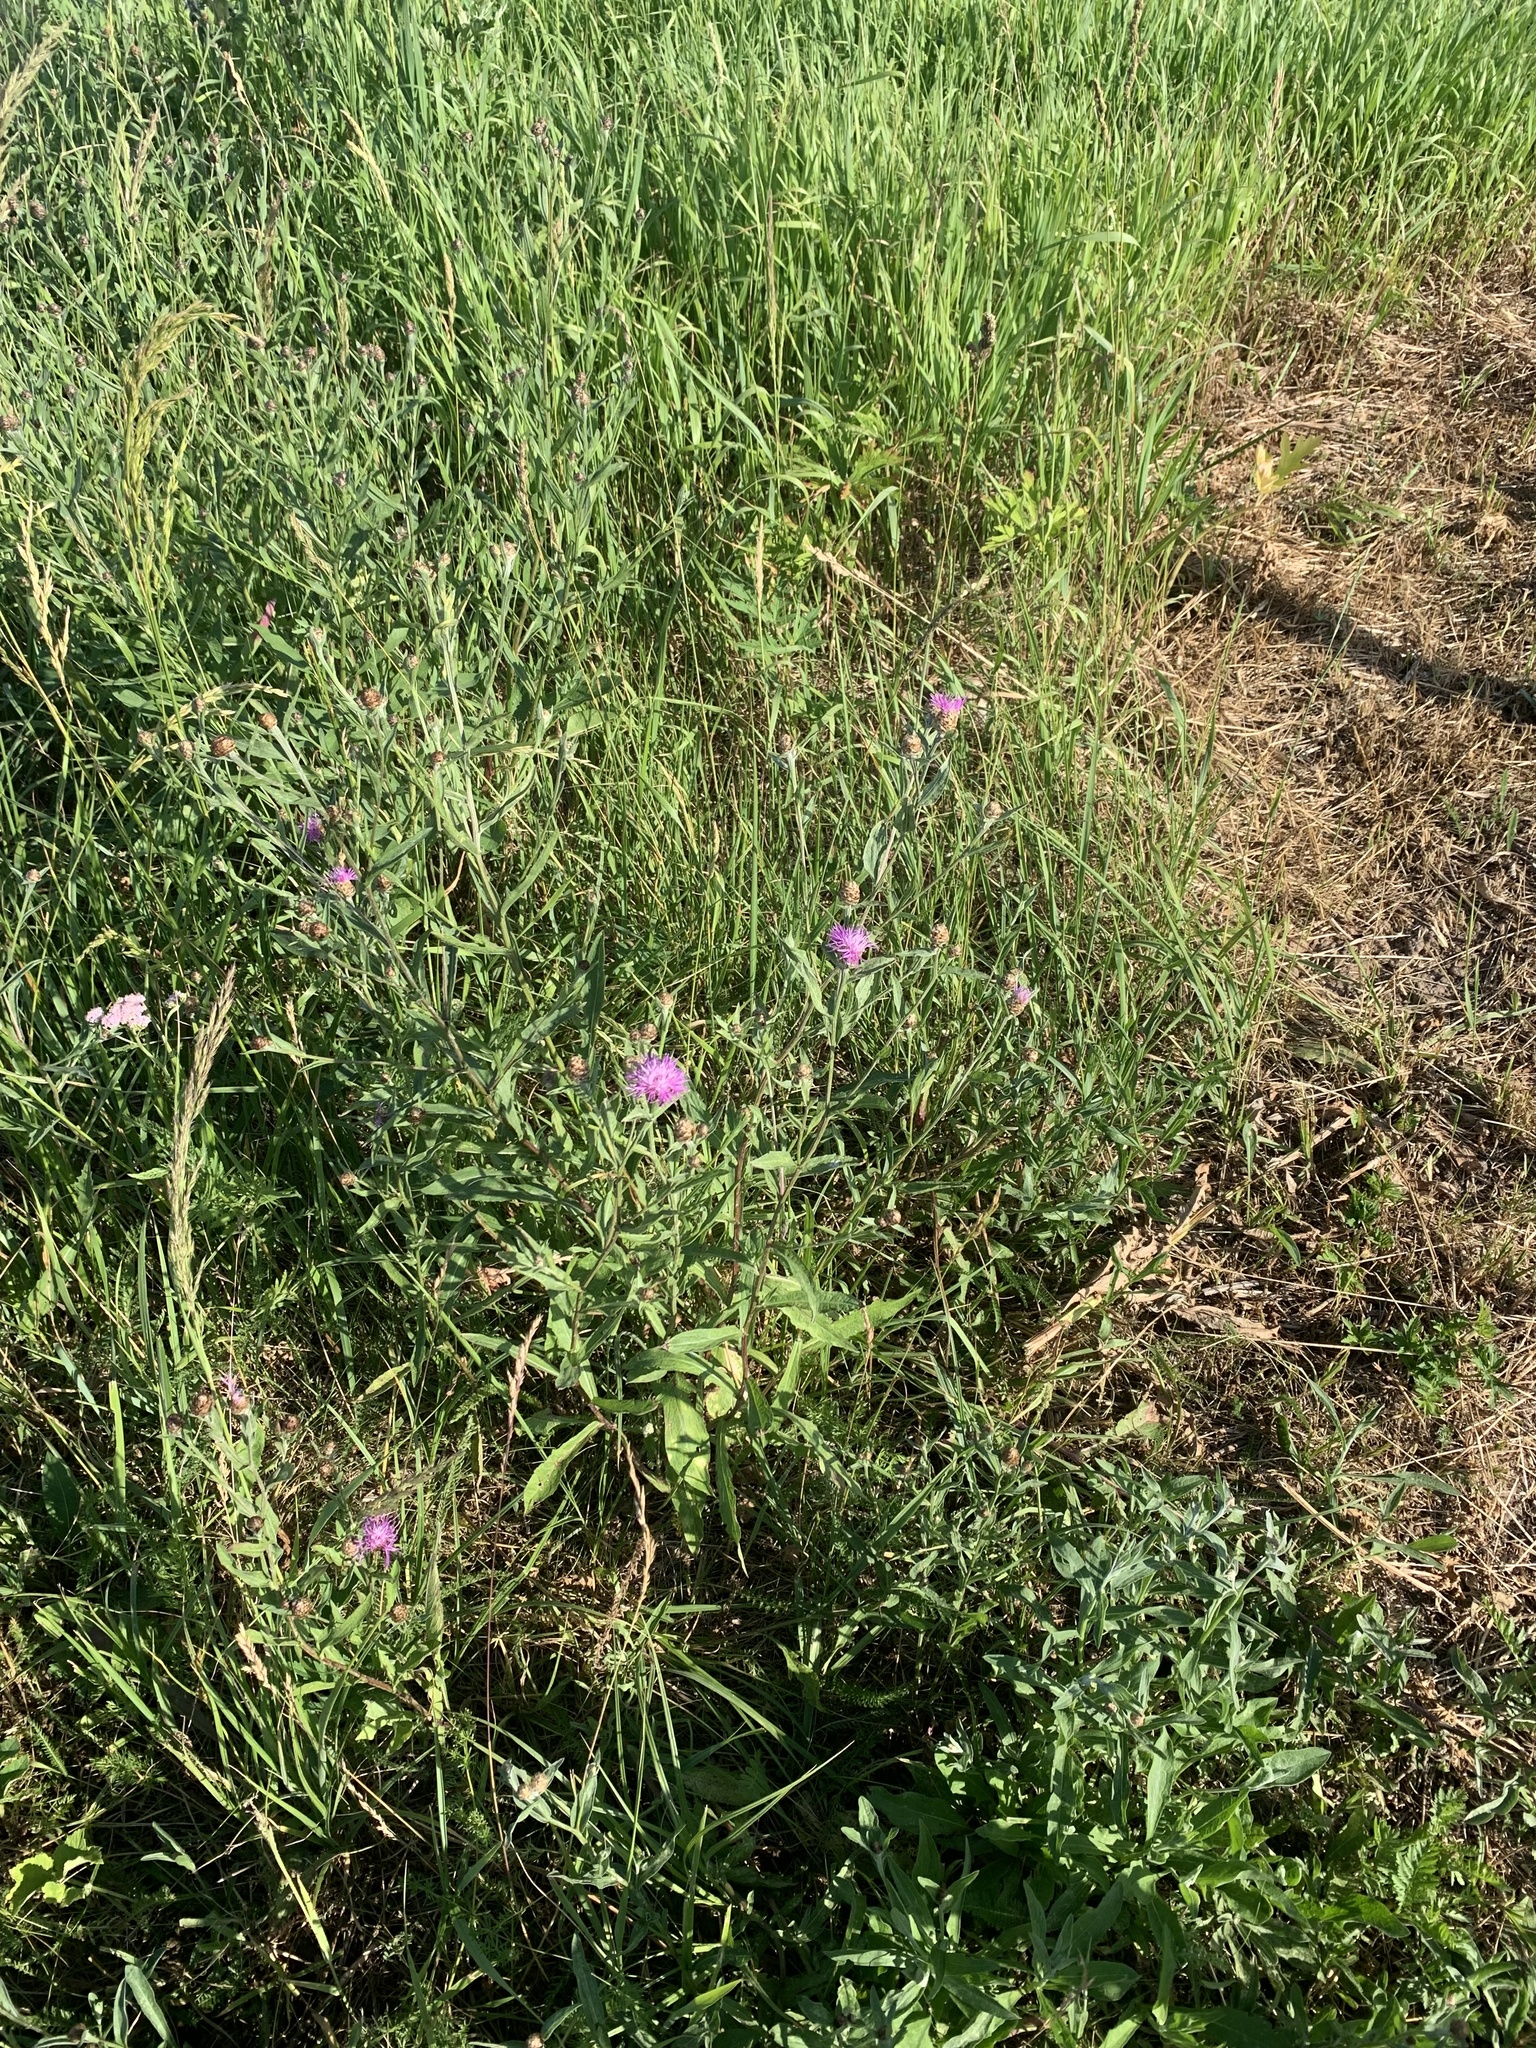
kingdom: Plantae
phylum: Tracheophyta
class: Magnoliopsida
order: Asterales
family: Asteraceae
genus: Centaurea
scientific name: Centaurea jacea
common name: Brown knapweed
